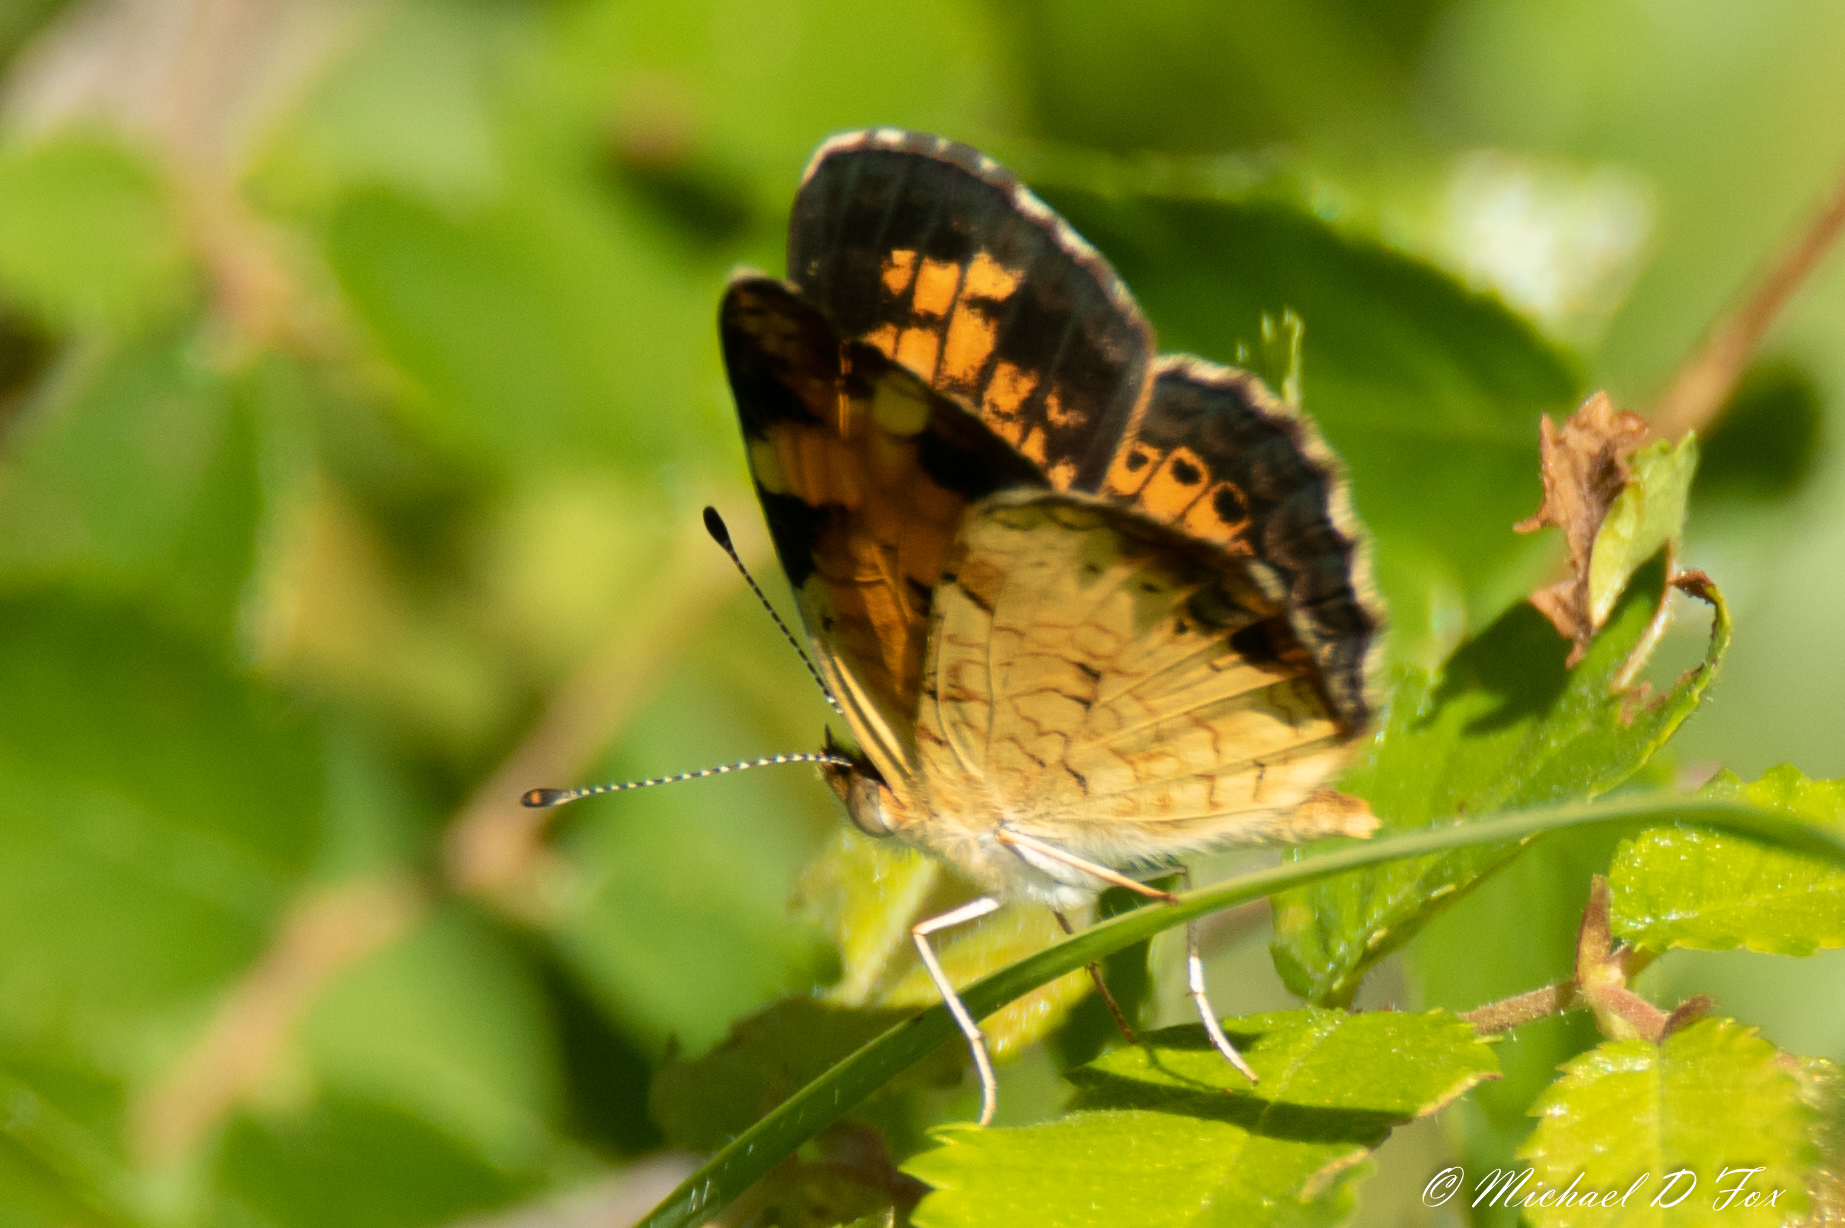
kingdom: Animalia
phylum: Arthropoda
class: Insecta
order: Lepidoptera
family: Nymphalidae
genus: Phyciodes
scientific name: Phyciodes tharos
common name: Pearl crescent
